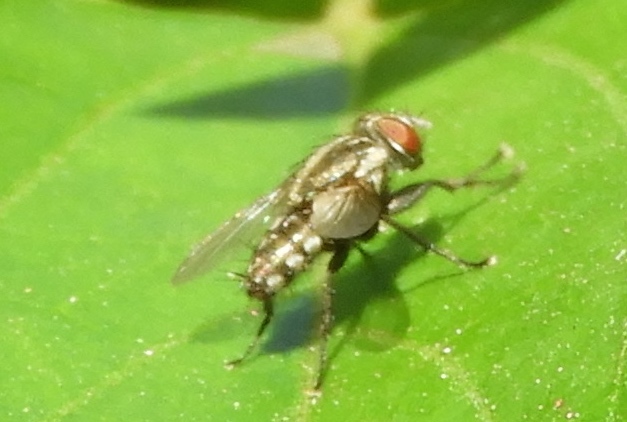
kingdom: Animalia
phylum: Arthropoda
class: Insecta
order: Diptera
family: Sarcophagidae
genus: Sarcophaga
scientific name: Sarcophaga
